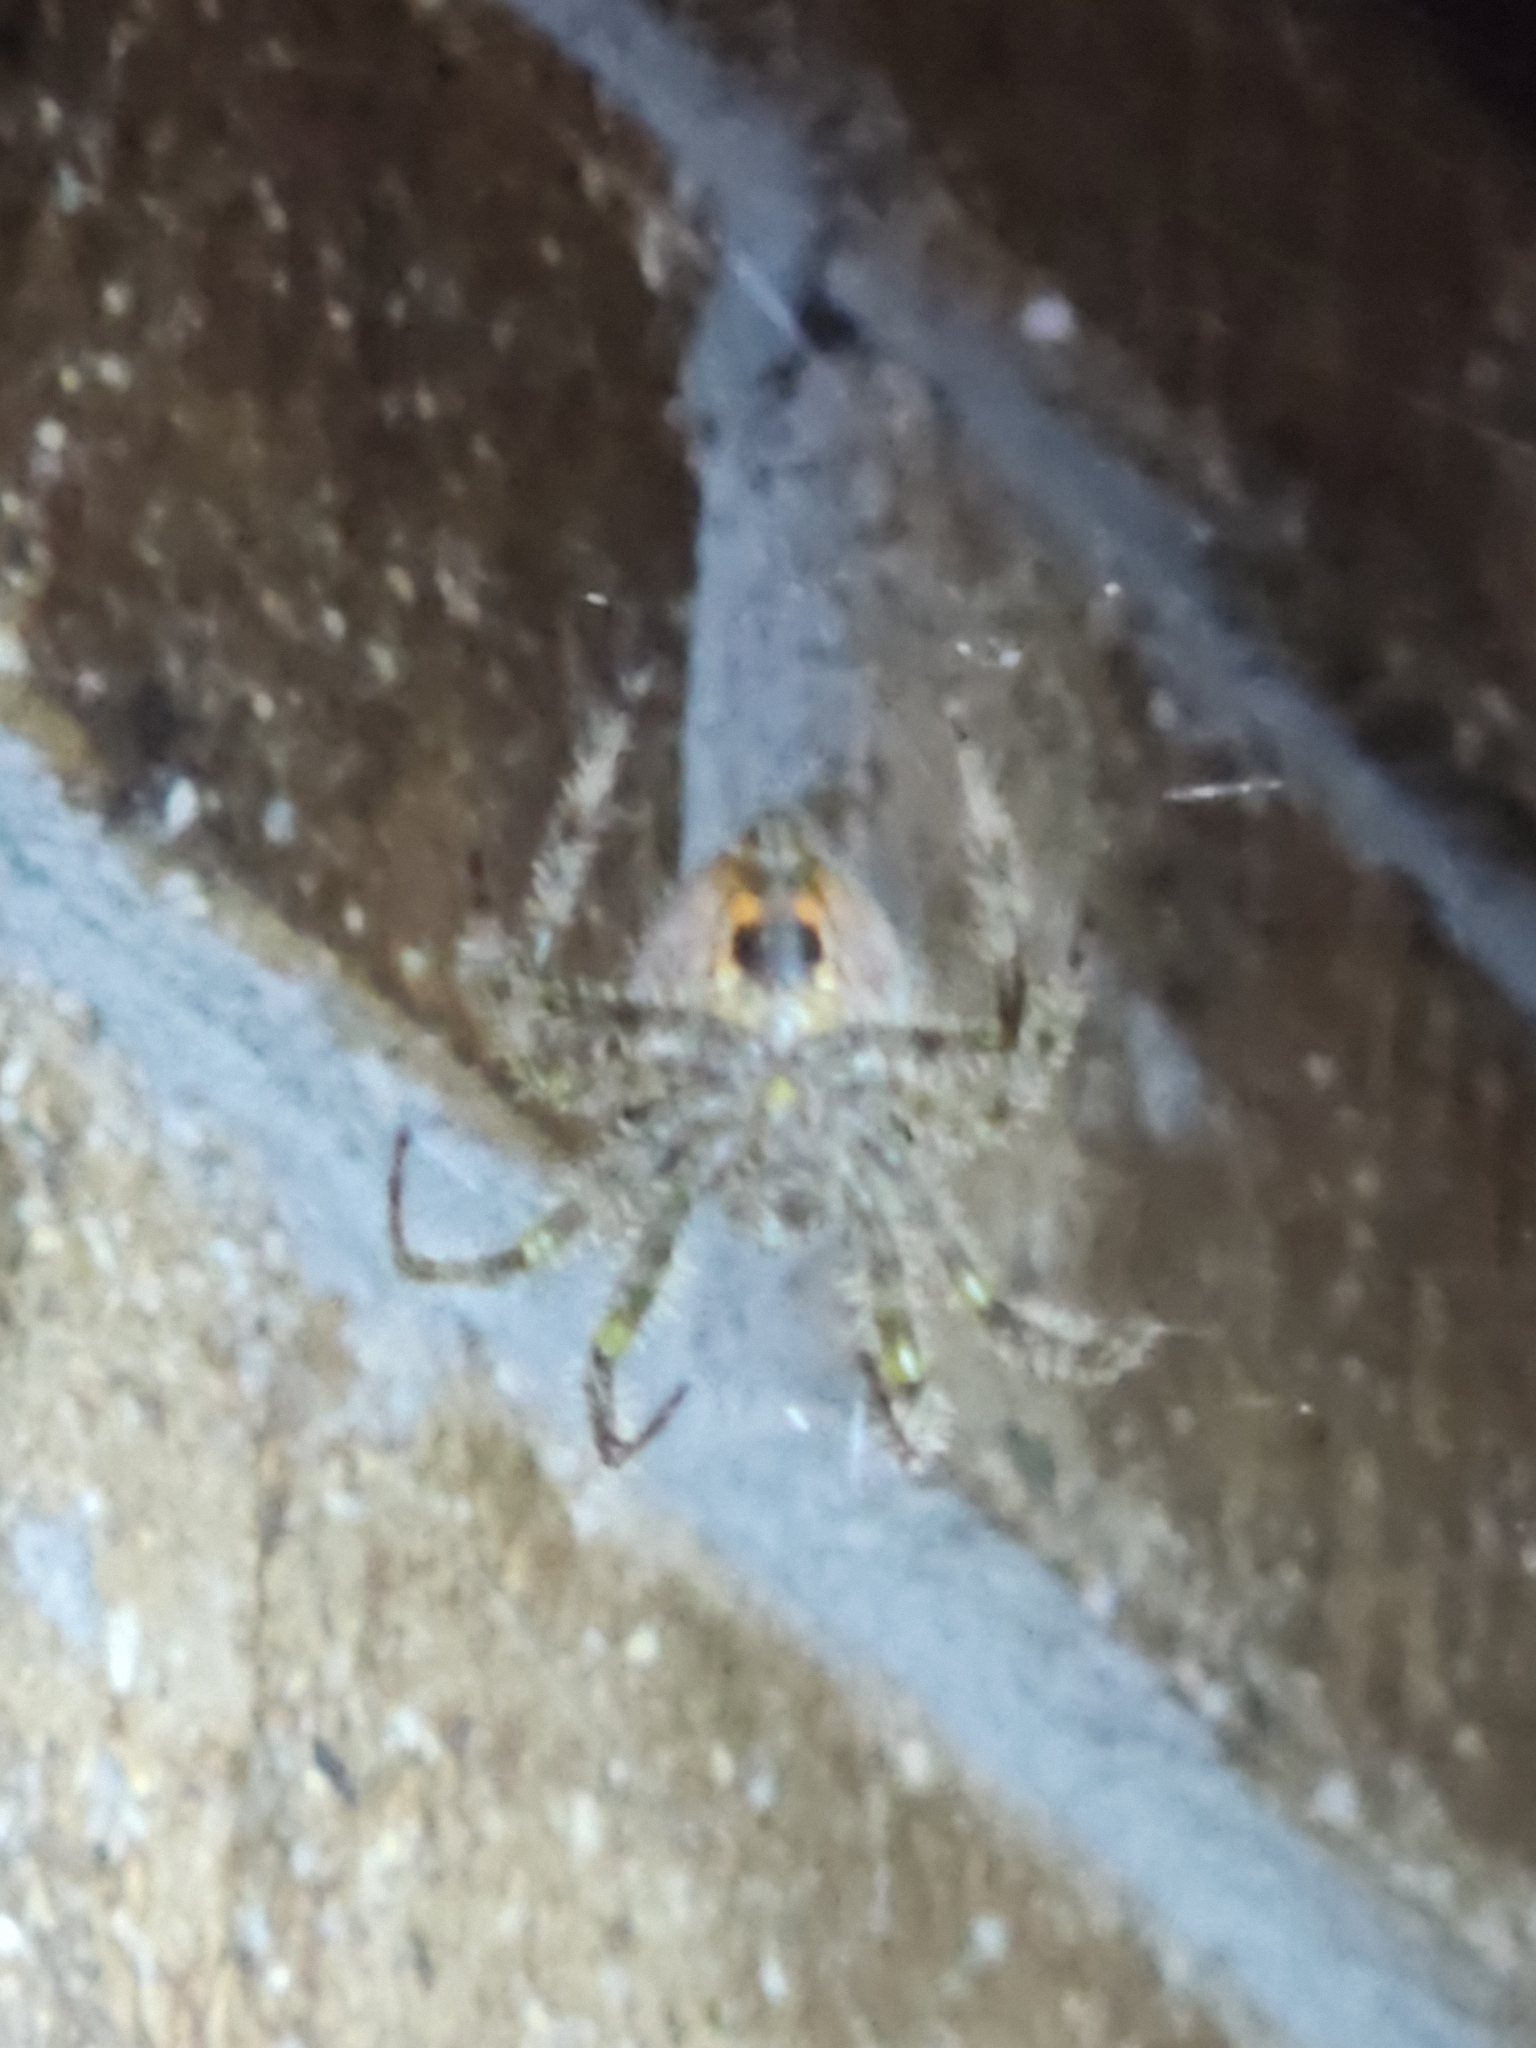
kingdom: Animalia
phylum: Arthropoda
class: Arachnida
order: Araneae
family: Araneidae
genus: Araneus
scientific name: Araneus gemmoides
